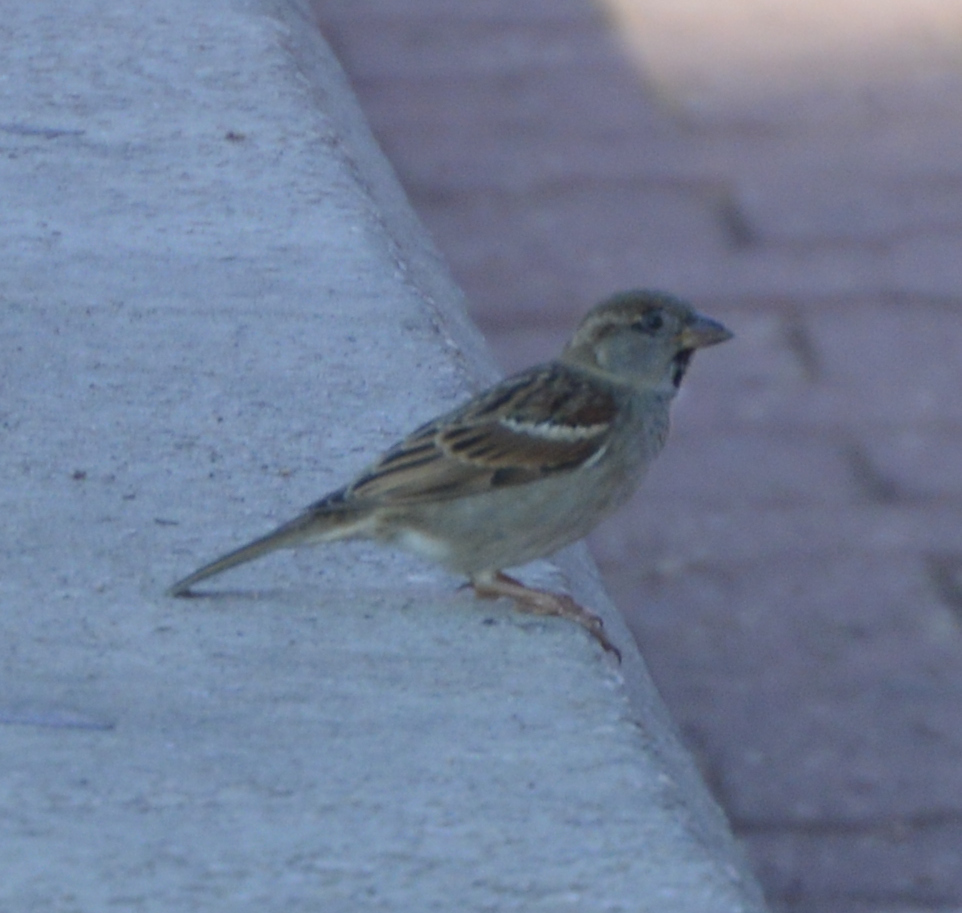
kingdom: Animalia
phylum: Chordata
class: Aves
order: Passeriformes
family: Passeridae
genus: Passer
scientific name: Passer domesticus
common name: House sparrow
